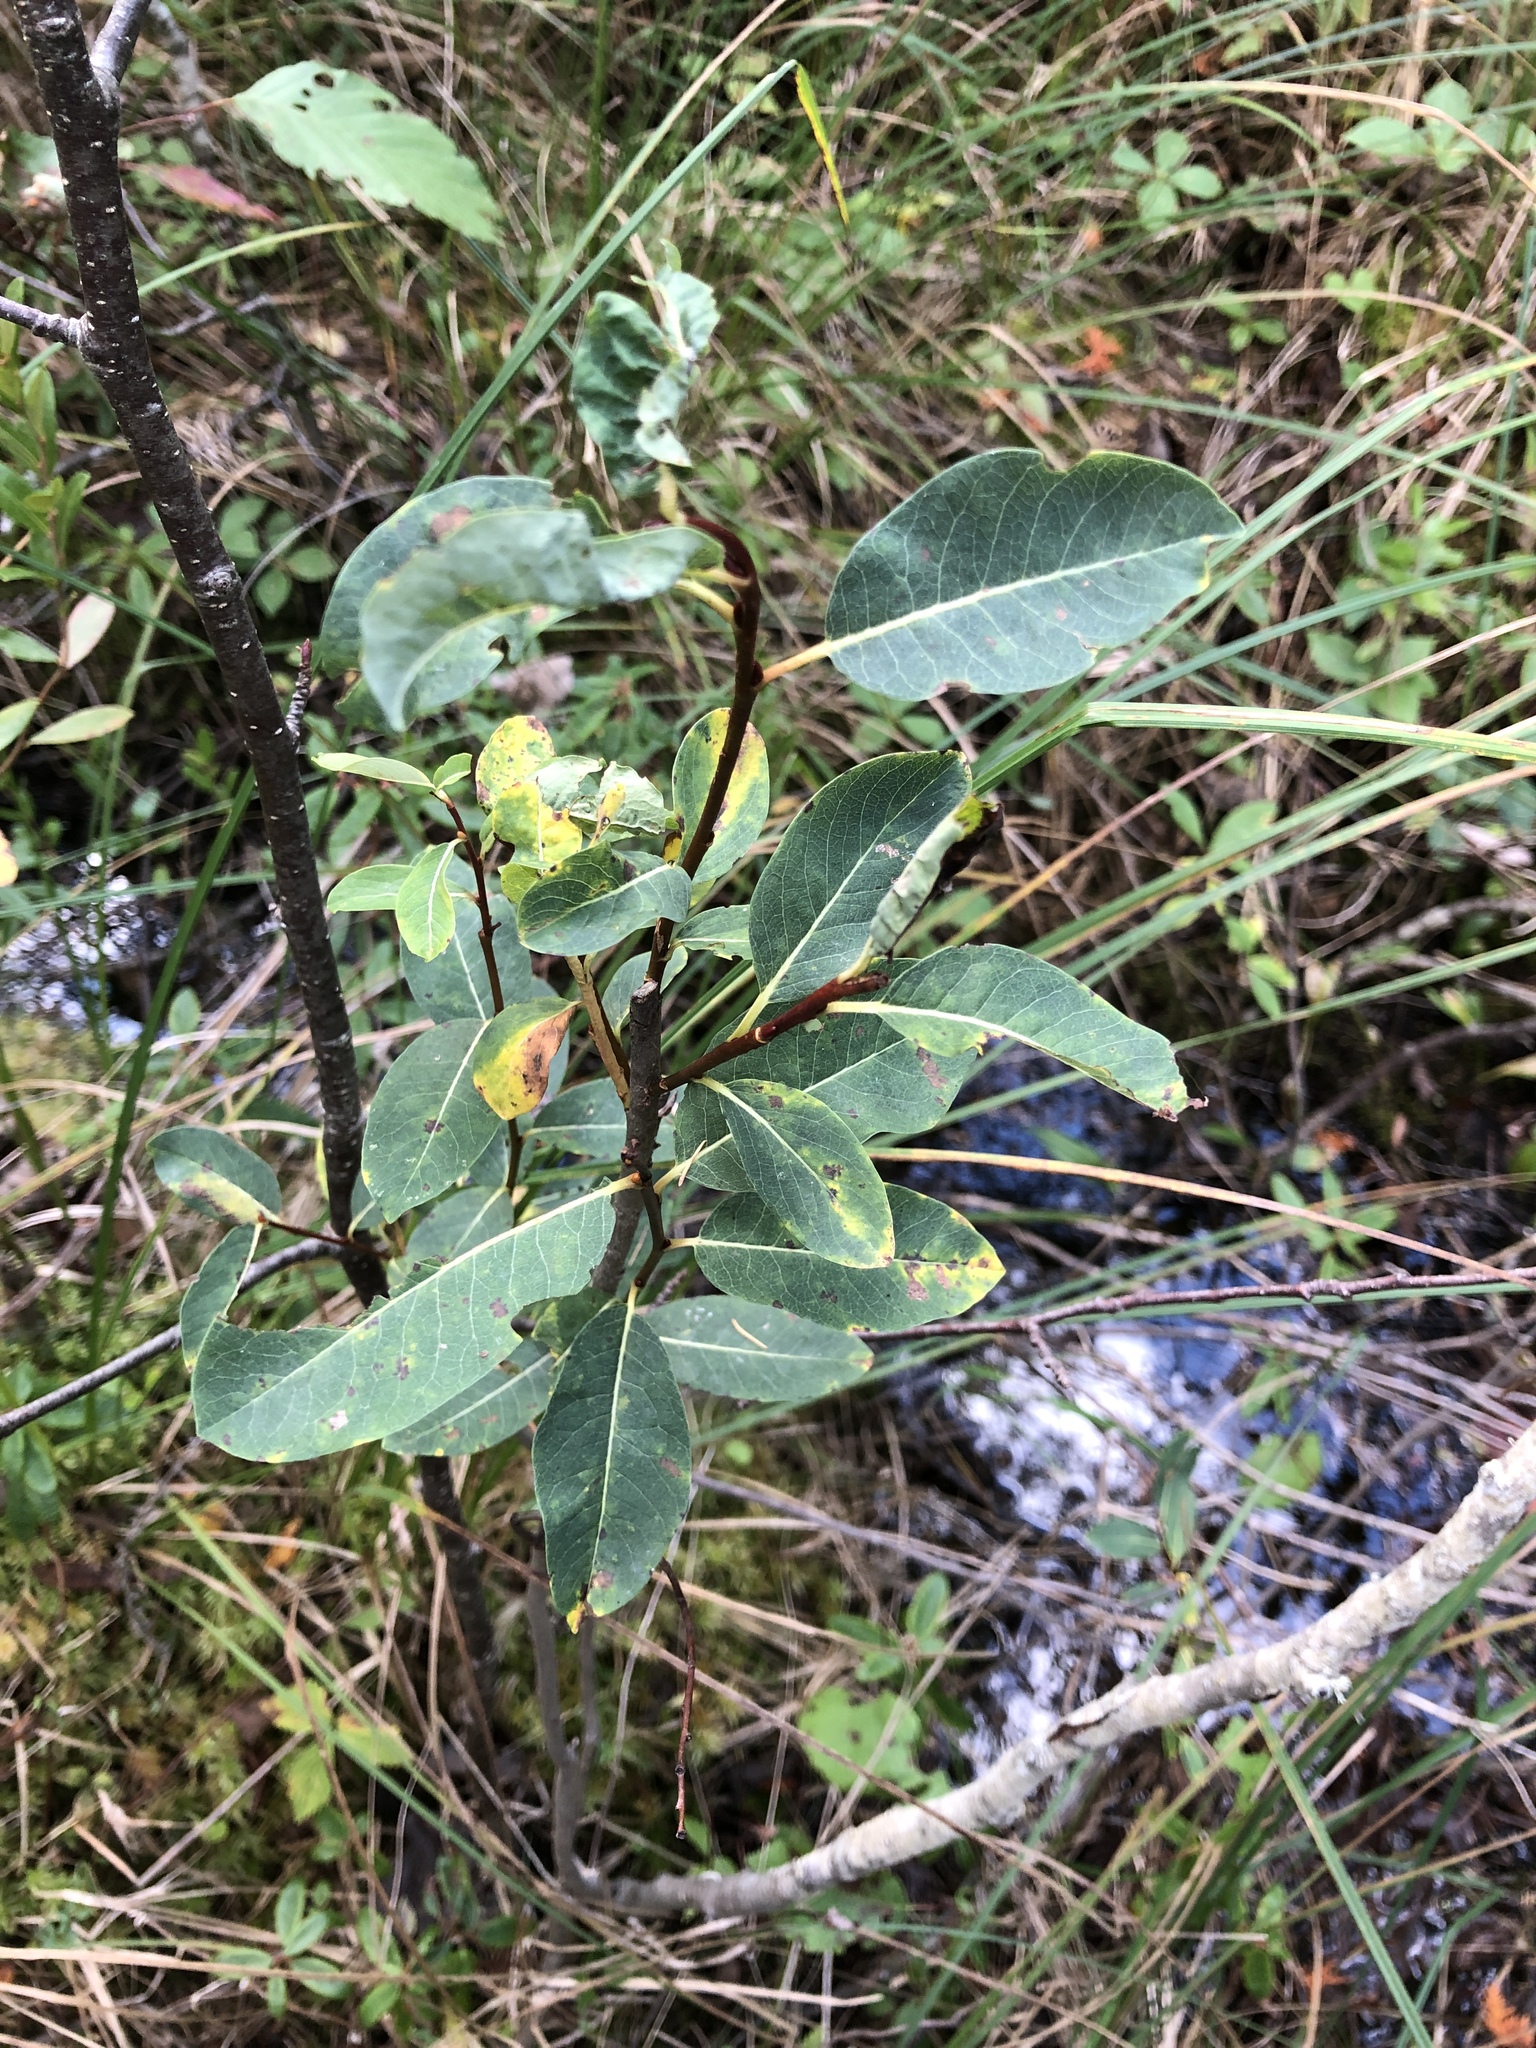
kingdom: Plantae
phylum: Tracheophyta
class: Magnoliopsida
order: Malpighiales
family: Salicaceae
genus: Salix
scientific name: Salix pedicellaris
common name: Bog willow
